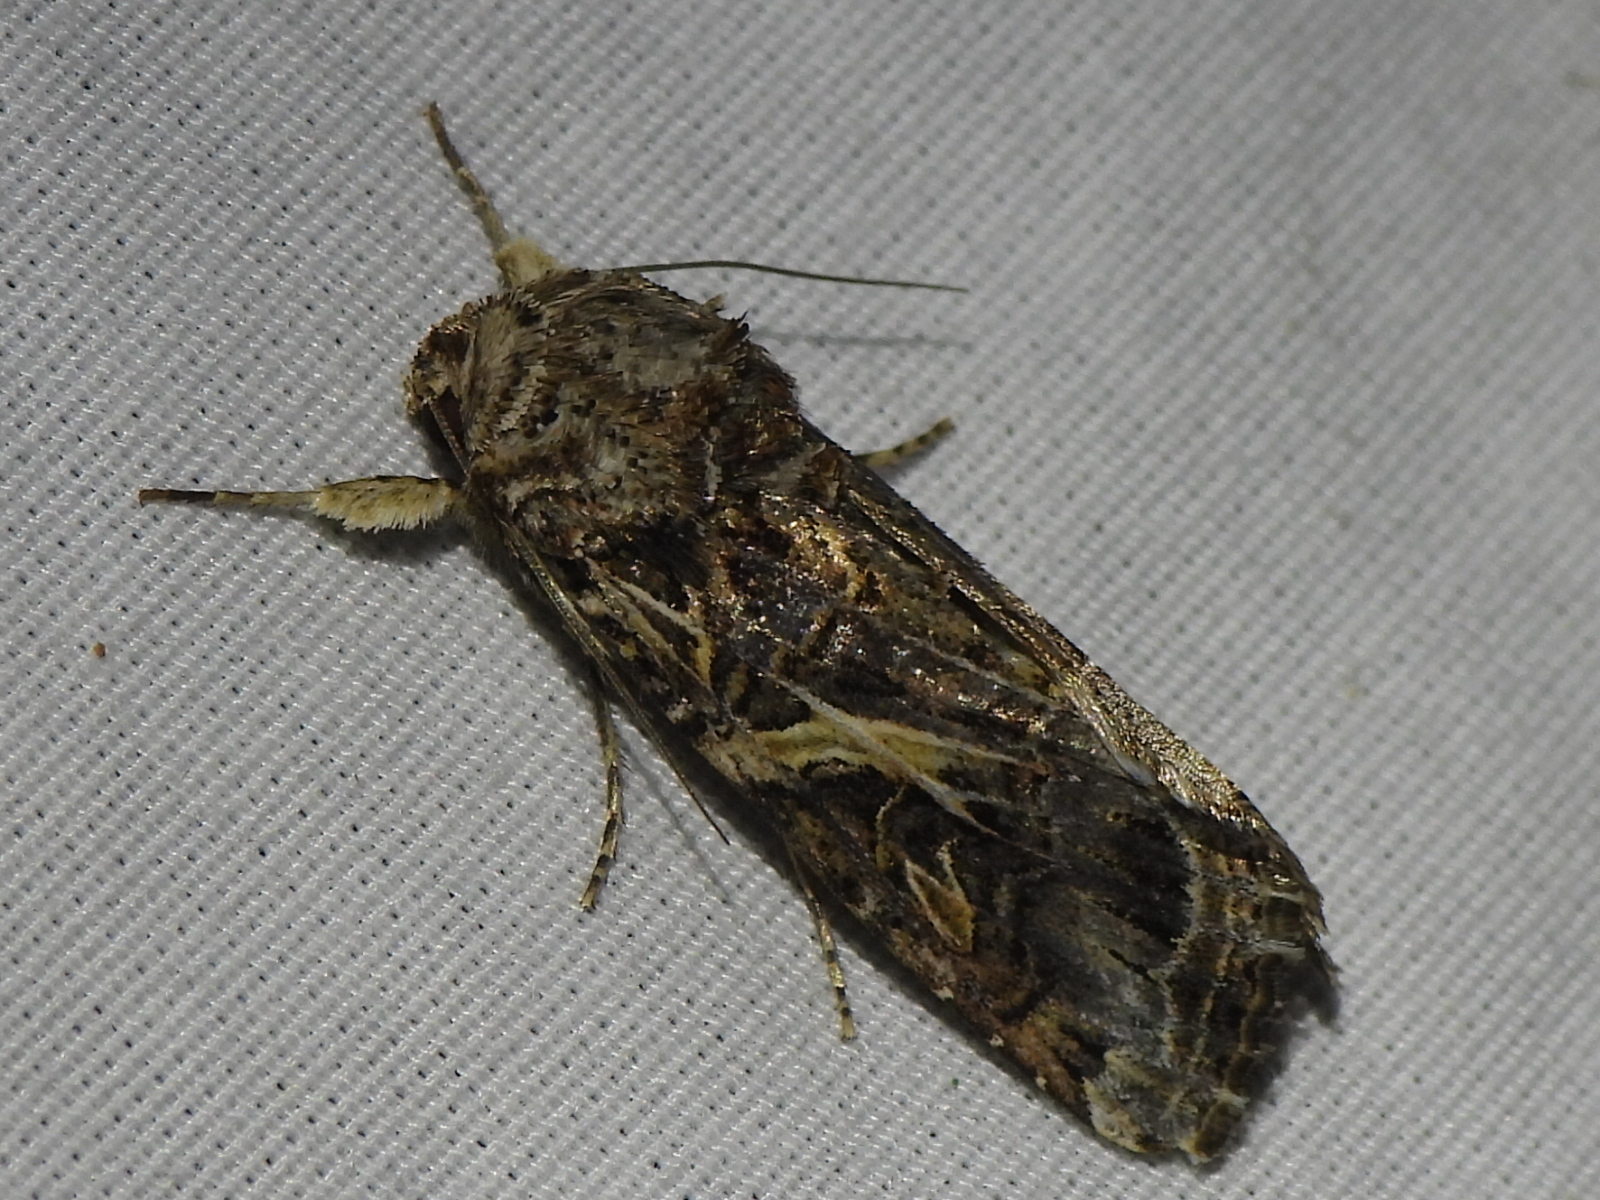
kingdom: Animalia
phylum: Arthropoda
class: Insecta
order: Lepidoptera
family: Noctuidae
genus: Spodoptera
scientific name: Spodoptera ornithogalli
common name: Yellow-striped armyworm
